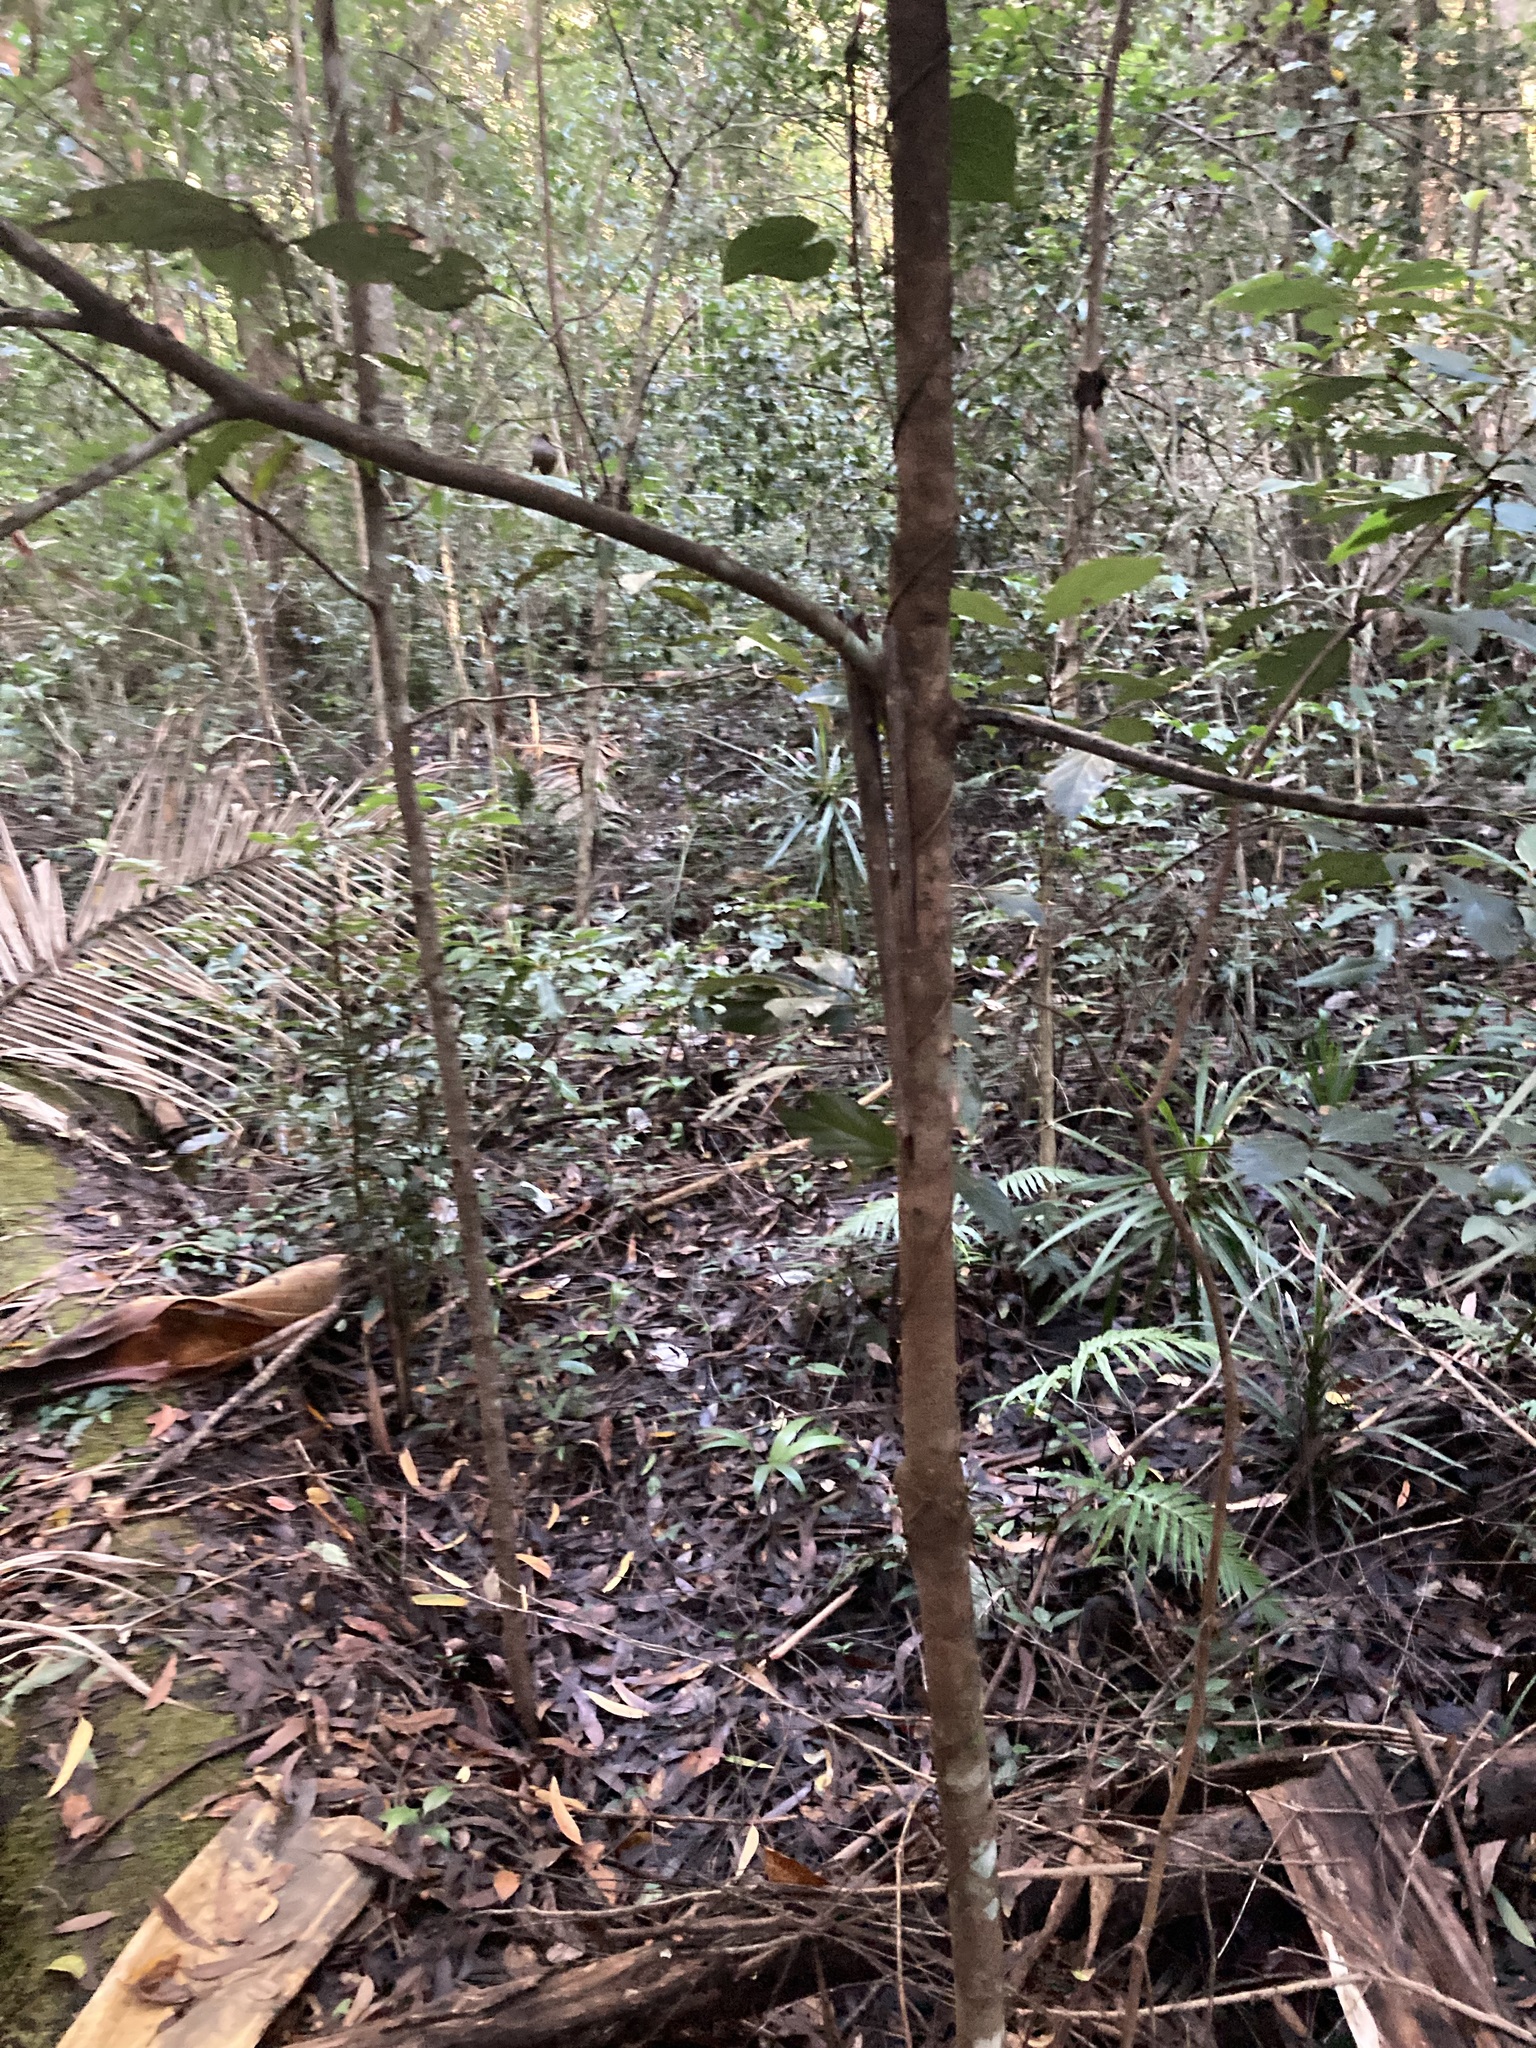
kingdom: Plantae
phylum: Tracheophyta
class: Magnoliopsida
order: Laurales
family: Lauraceae
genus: Neolitsea
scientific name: Neolitsea dealbata
